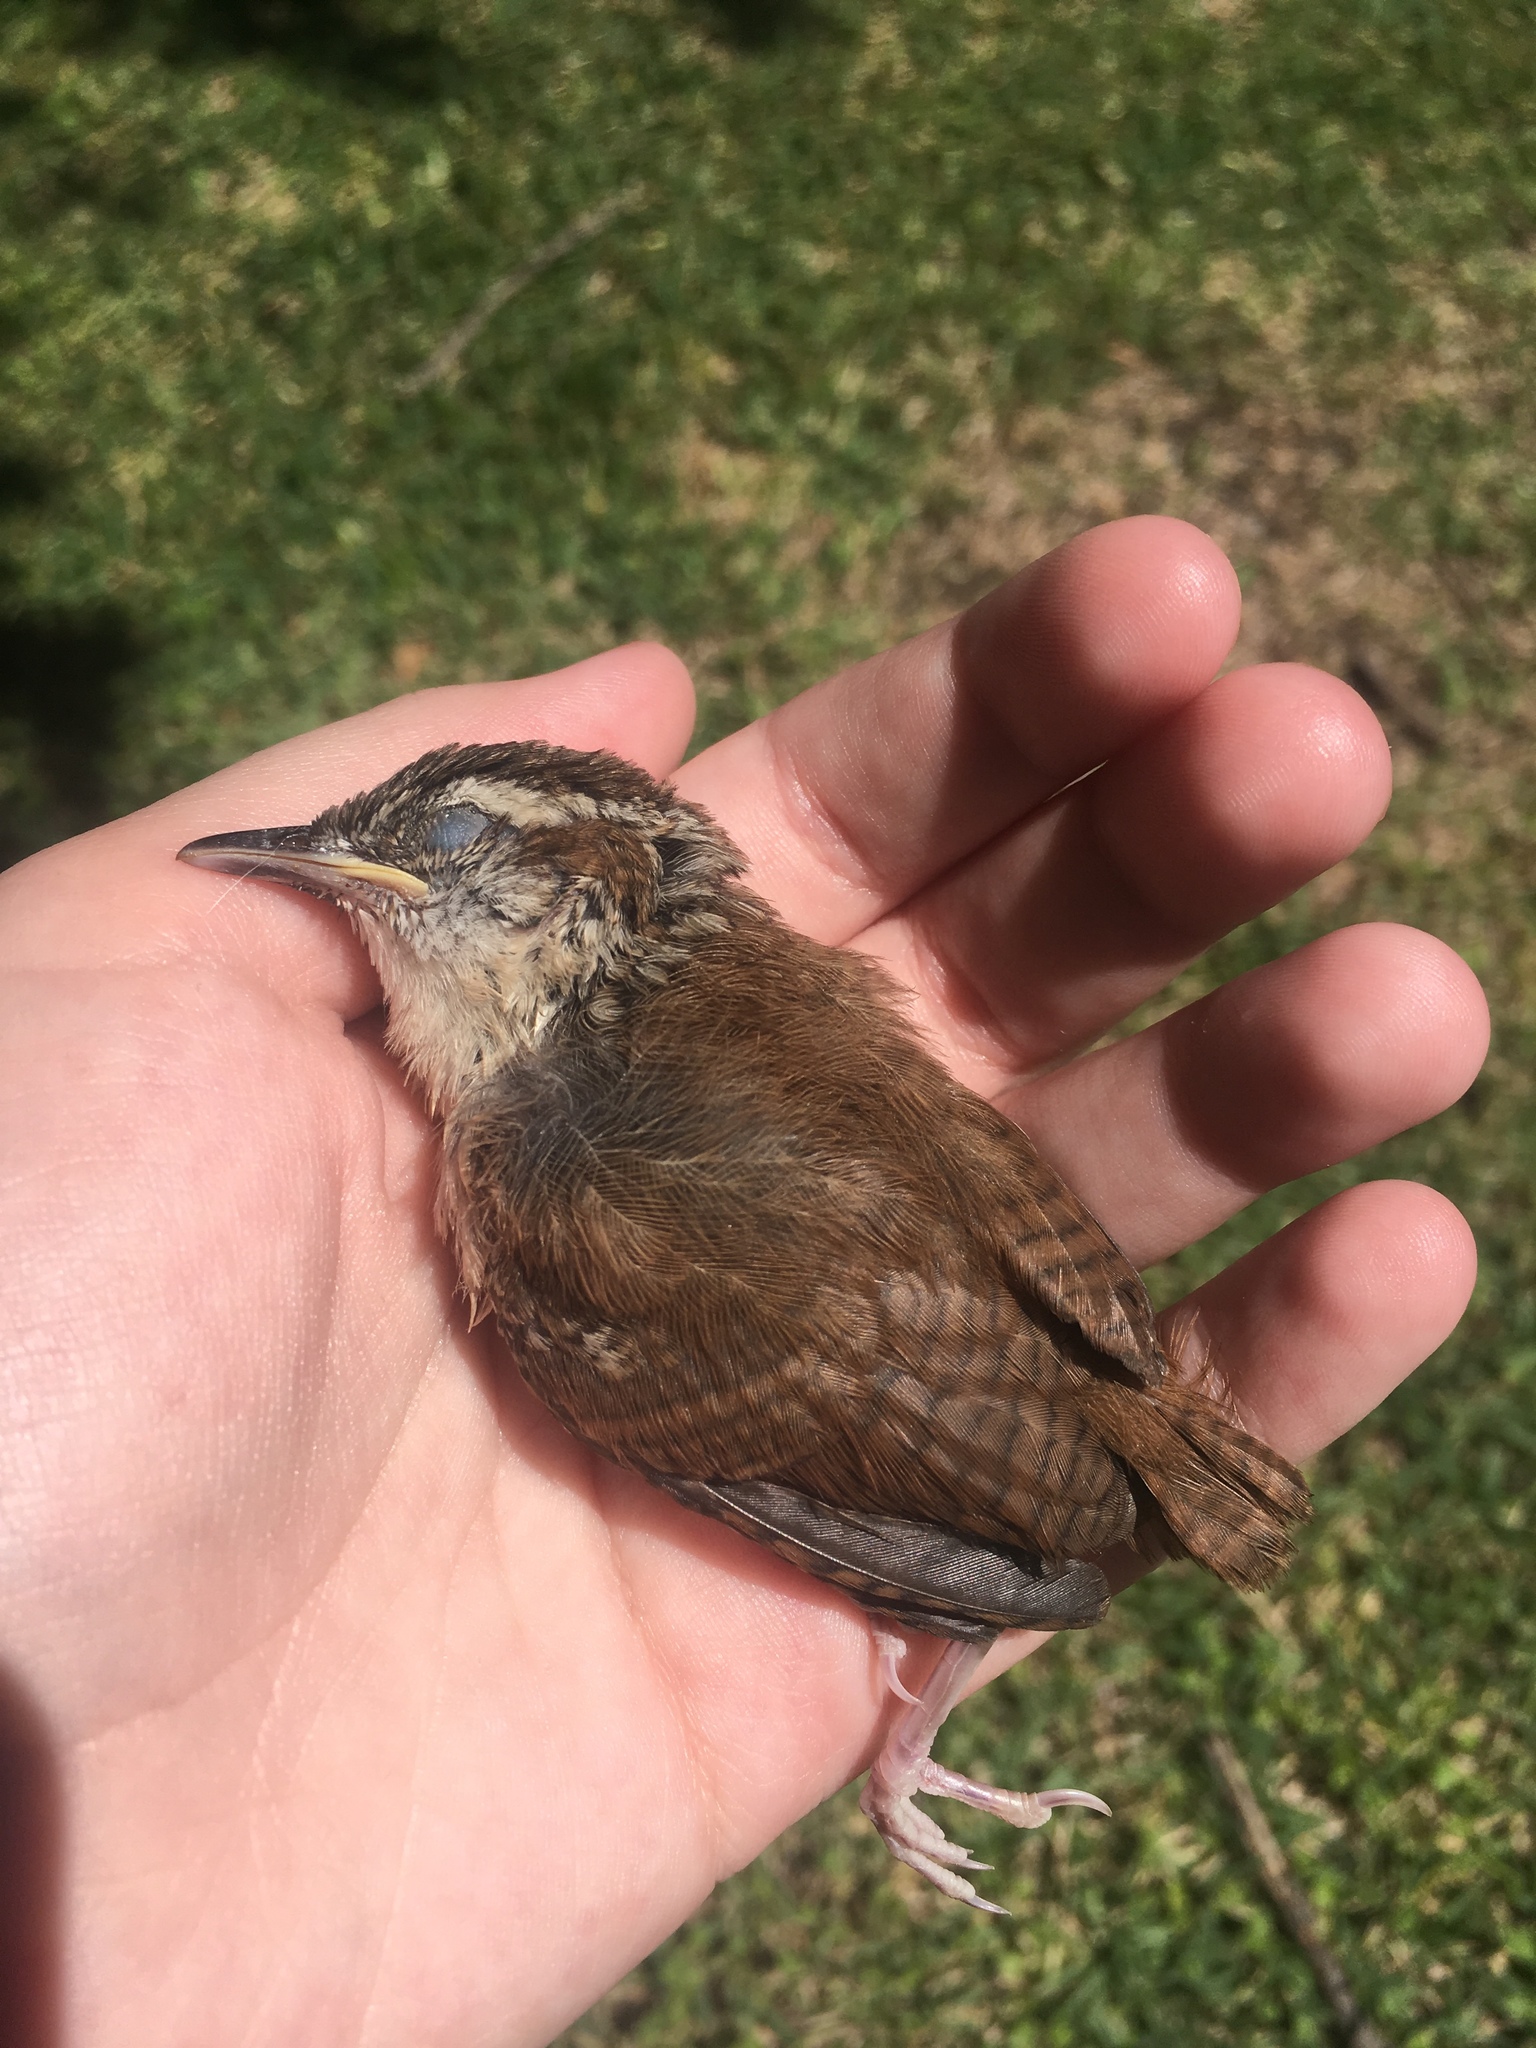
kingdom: Animalia
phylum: Chordata
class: Aves
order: Passeriformes
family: Troglodytidae
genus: Thryothorus
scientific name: Thryothorus ludovicianus
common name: Carolina wren
